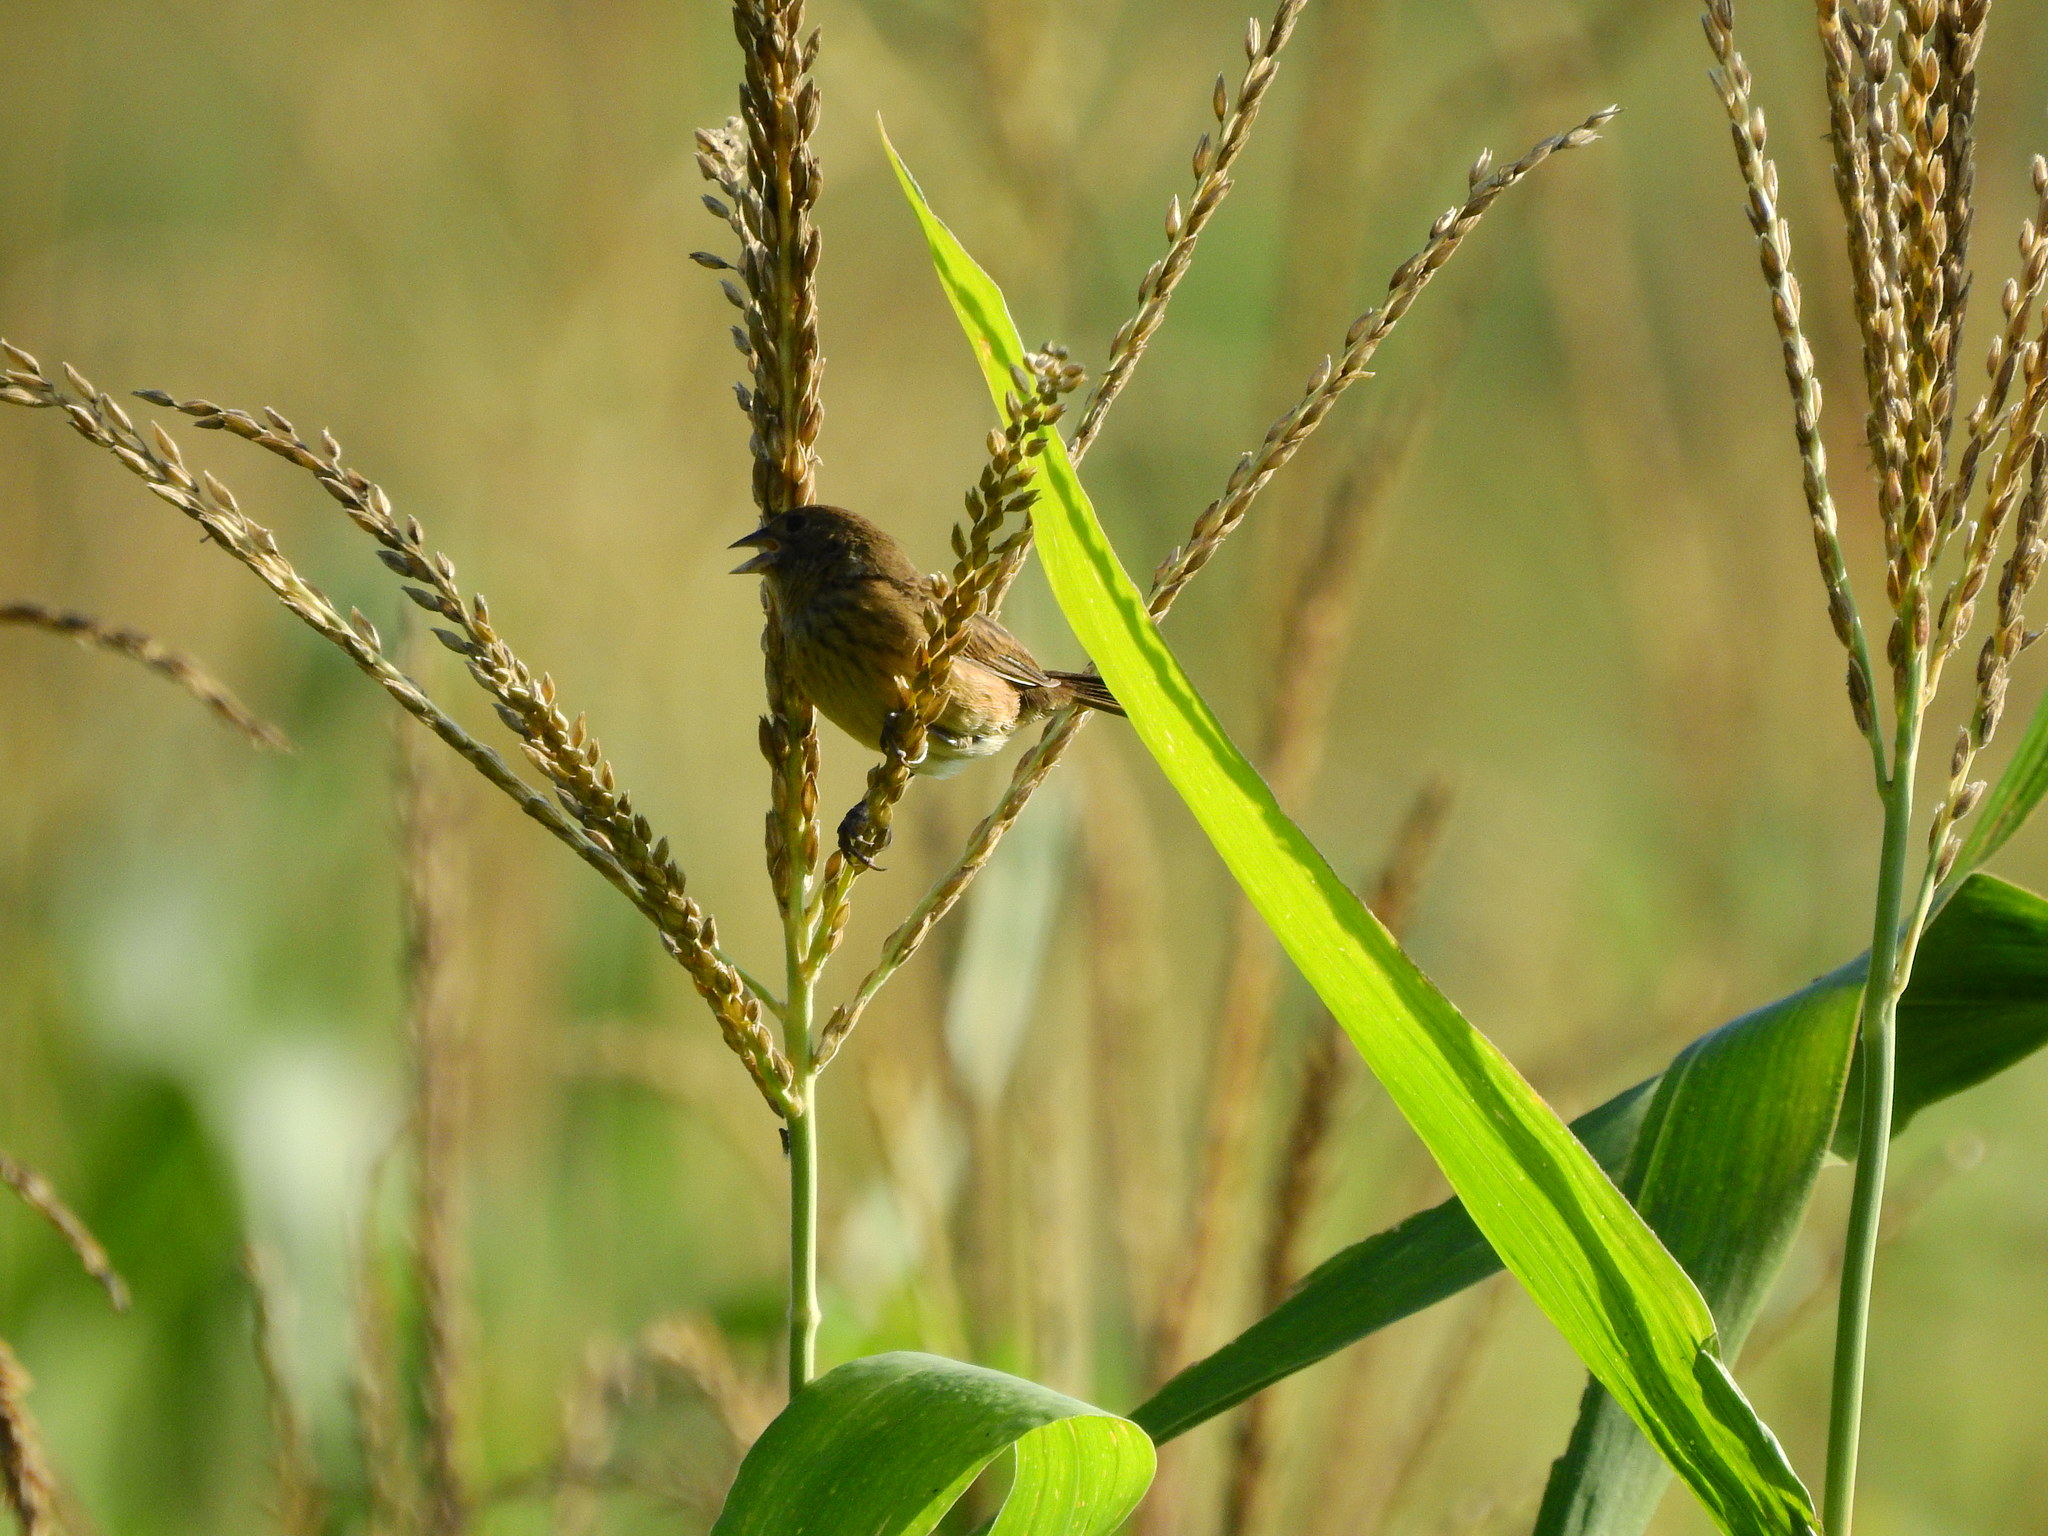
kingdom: Animalia
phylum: Chordata
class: Aves
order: Passeriformes
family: Thraupidae
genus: Volatinia
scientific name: Volatinia jacarina
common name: Blue-black grassquit
